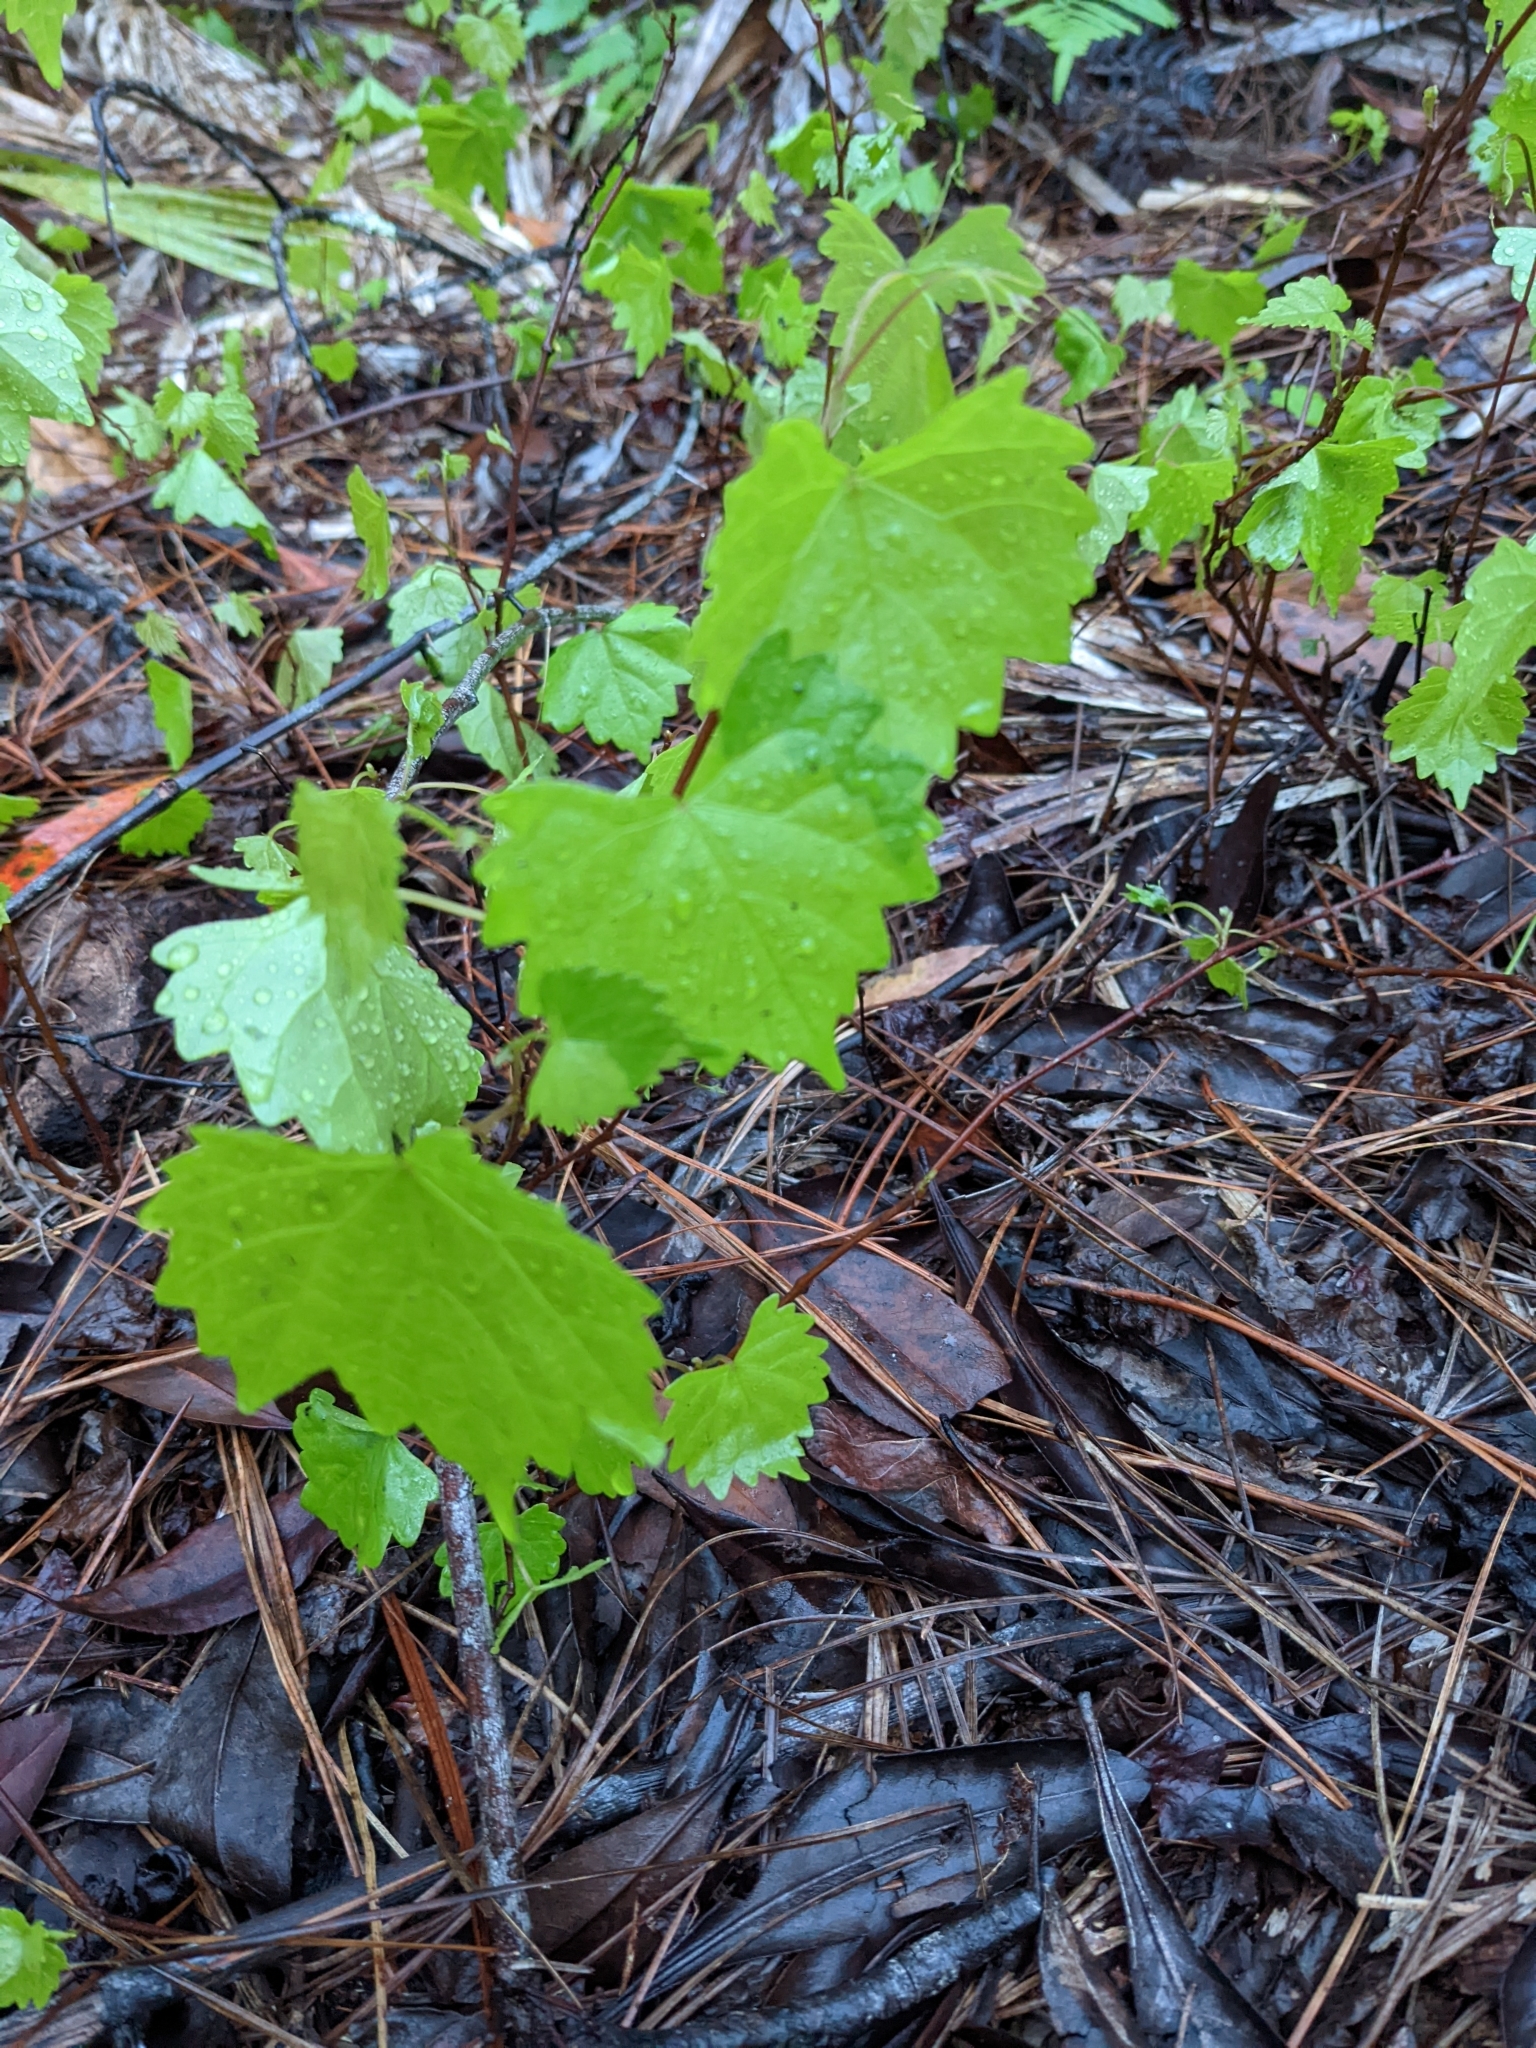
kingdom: Plantae
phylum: Tracheophyta
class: Magnoliopsida
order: Vitales
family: Vitaceae
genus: Vitis
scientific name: Vitis rotundifolia
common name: Muscadine grape
